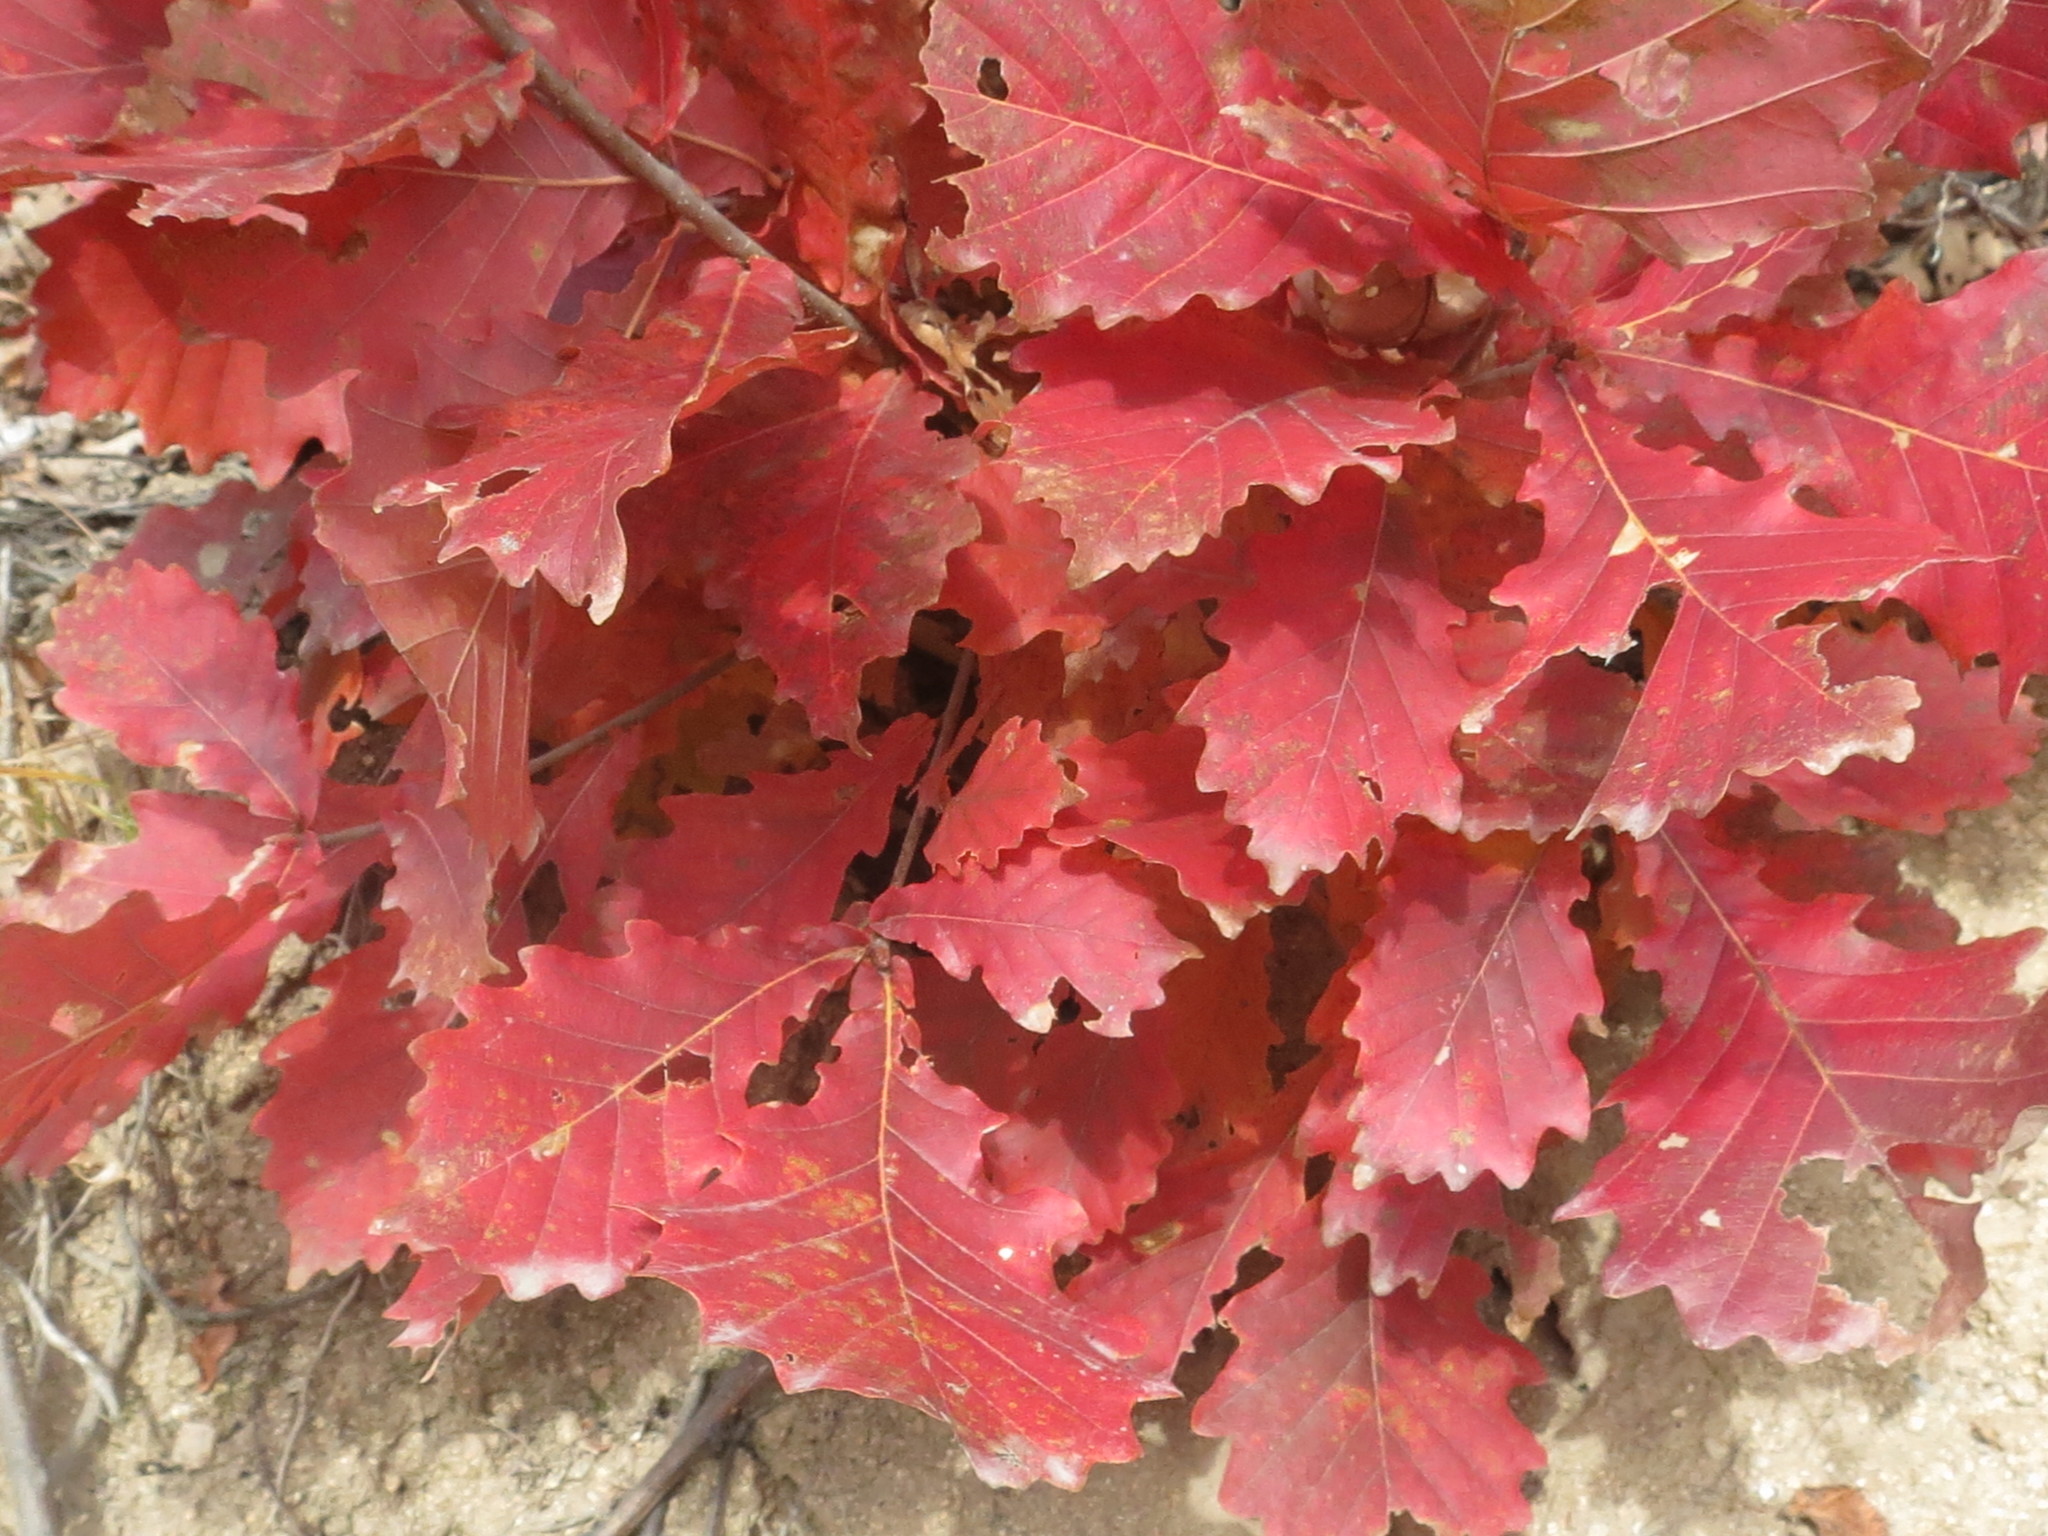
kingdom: Plantae
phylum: Tracheophyta
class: Magnoliopsida
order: Fagales
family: Fagaceae
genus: Quercus
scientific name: Quercus mongolica
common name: Mongolian oak
